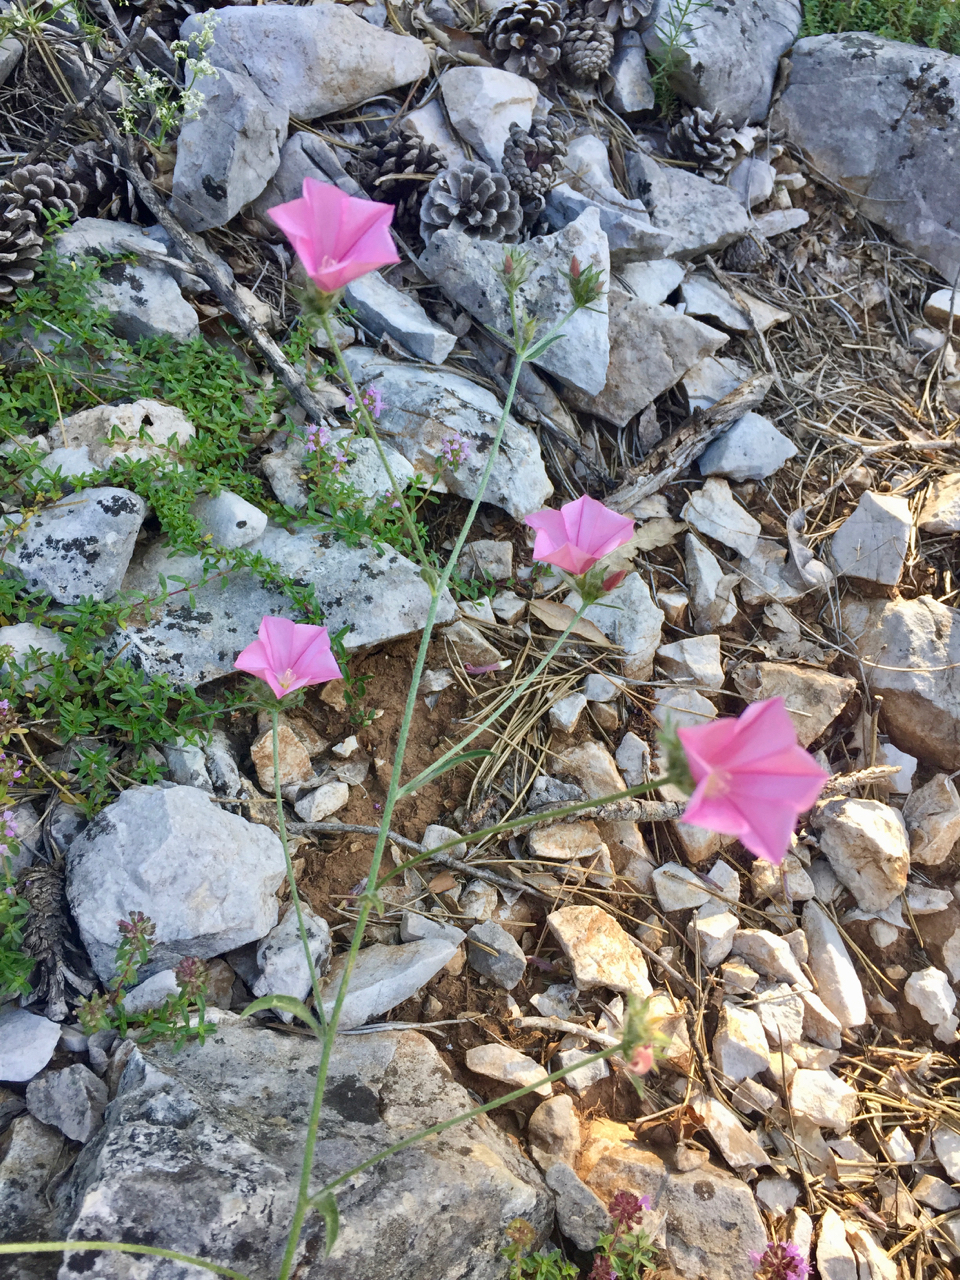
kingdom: Plantae
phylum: Tracheophyta
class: Magnoliopsida
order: Solanales
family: Convolvulaceae
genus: Convolvulus
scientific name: Convolvulus cantabrica
